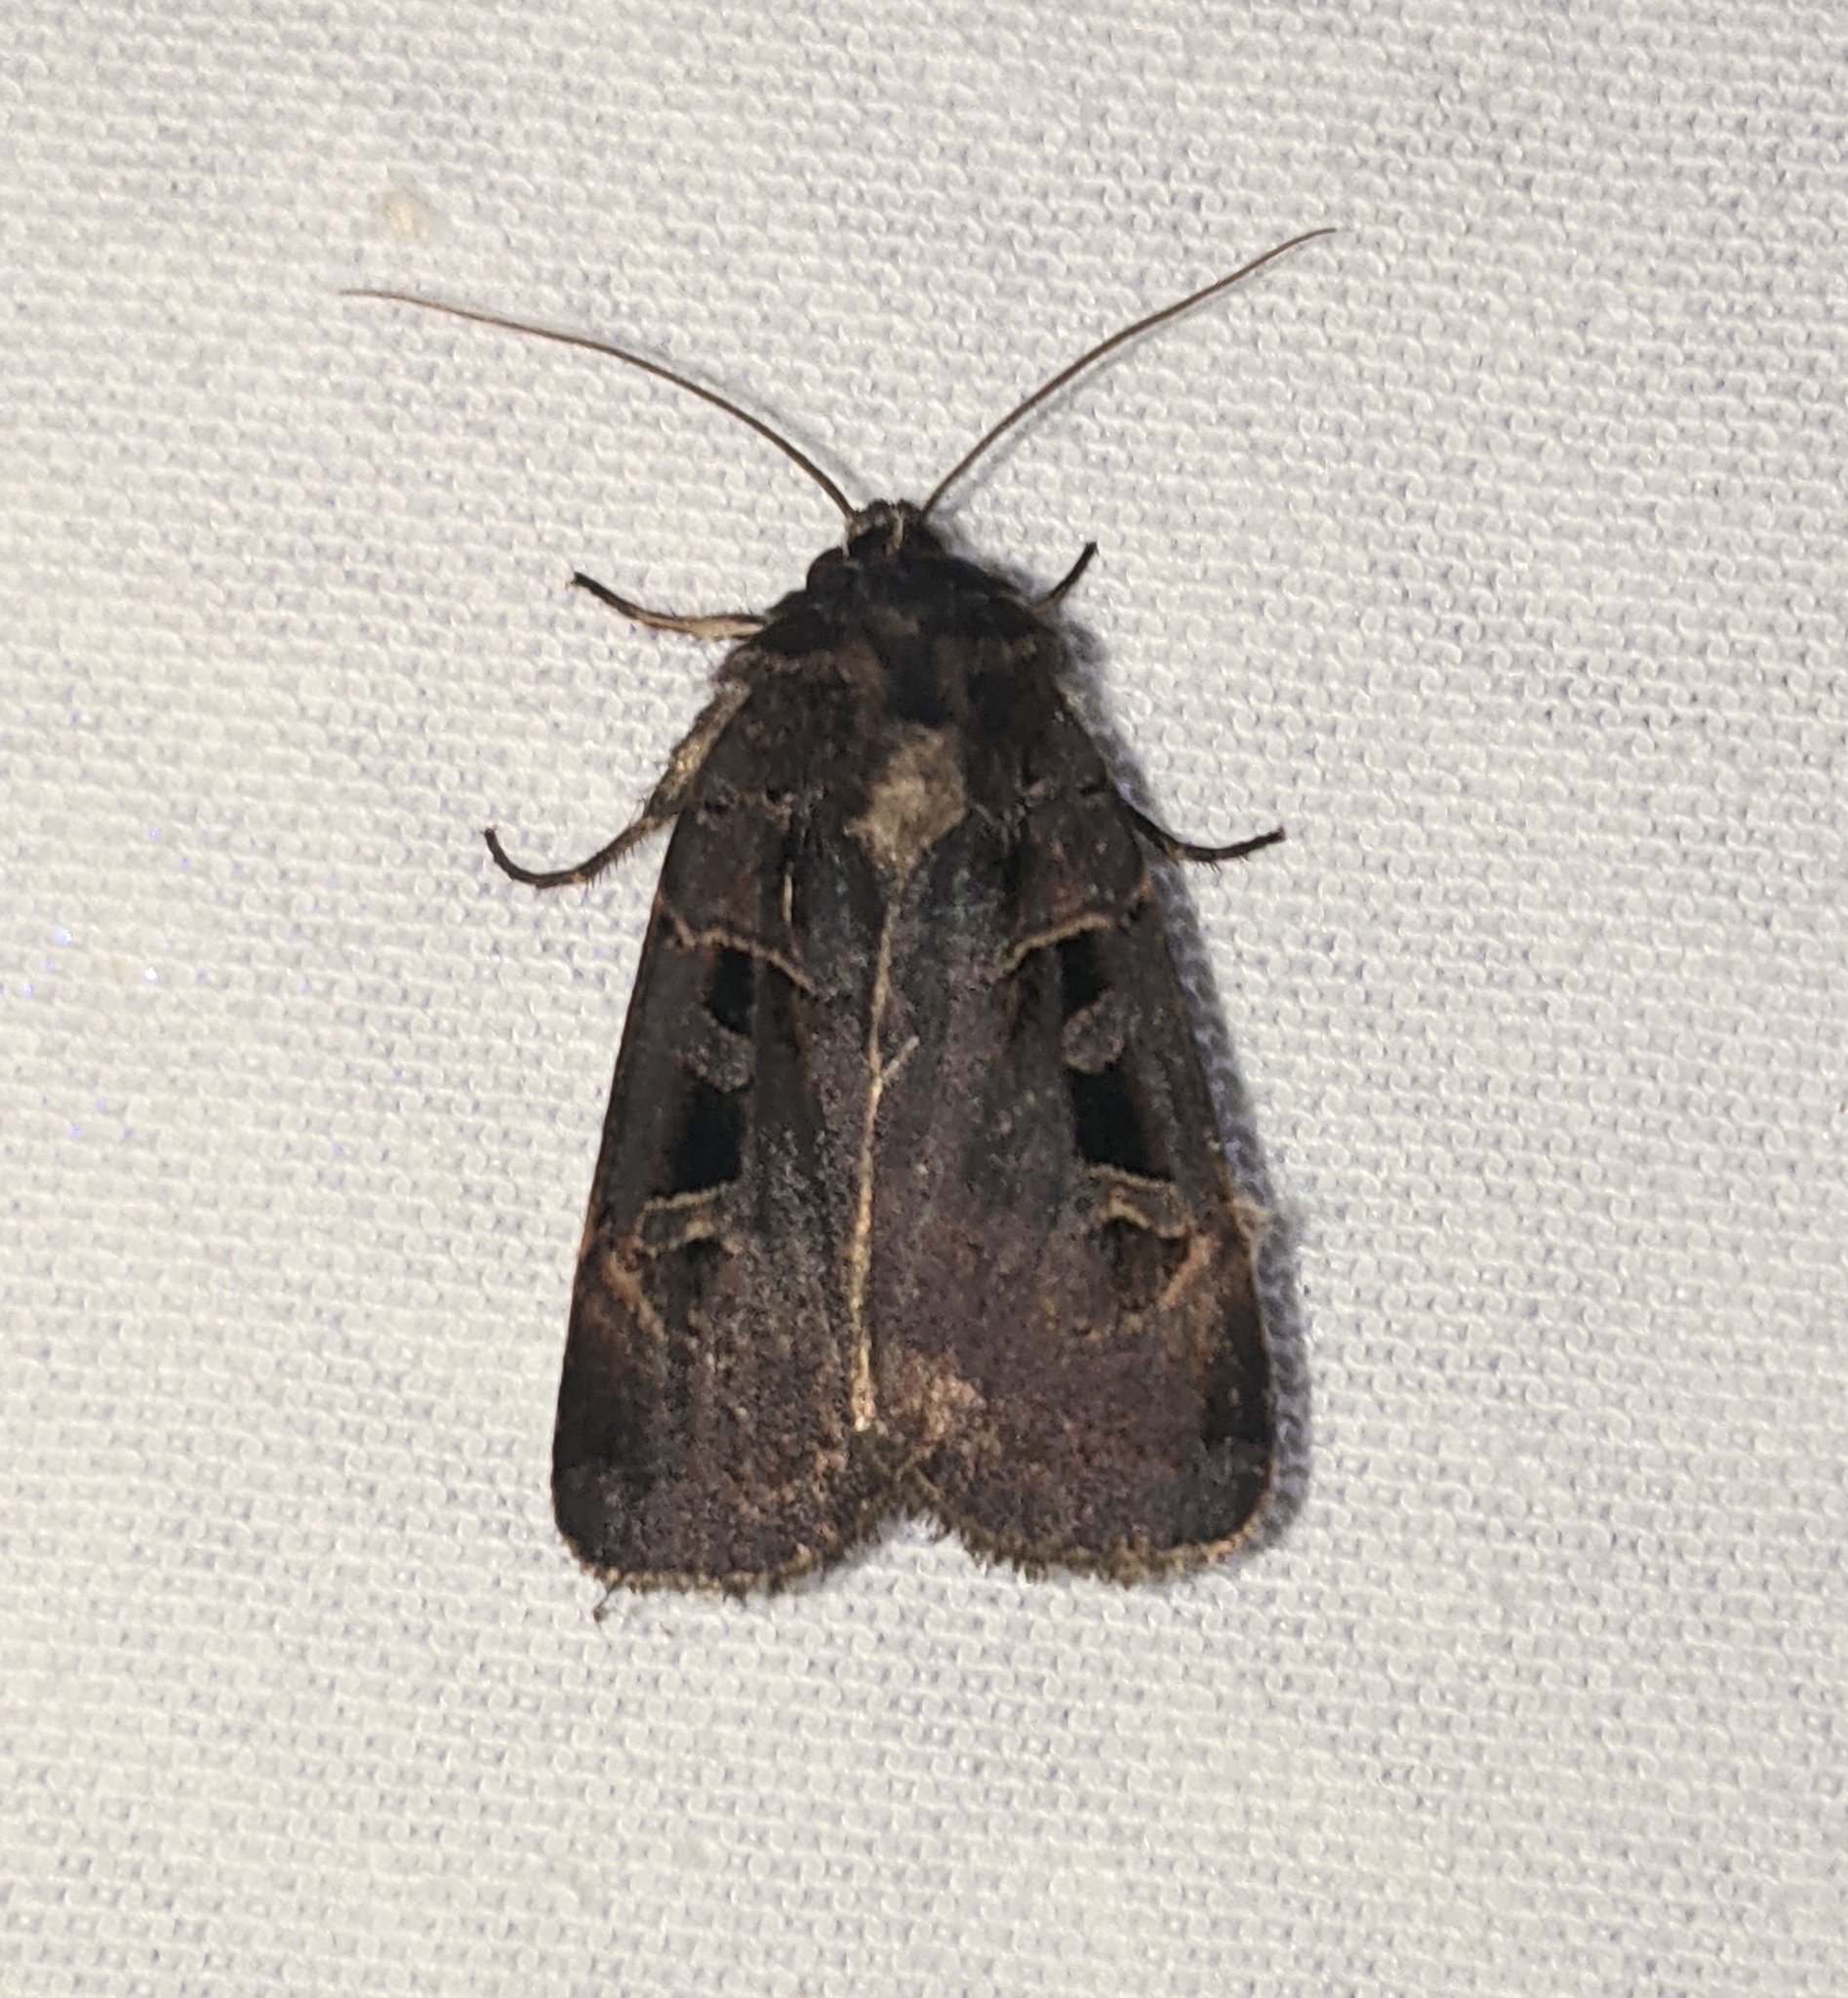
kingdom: Animalia
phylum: Arthropoda
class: Insecta
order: Lepidoptera
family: Noctuidae
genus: Pseudohermonassa
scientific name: Pseudohermonassa tenuicula
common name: Morrison's sooty dart
